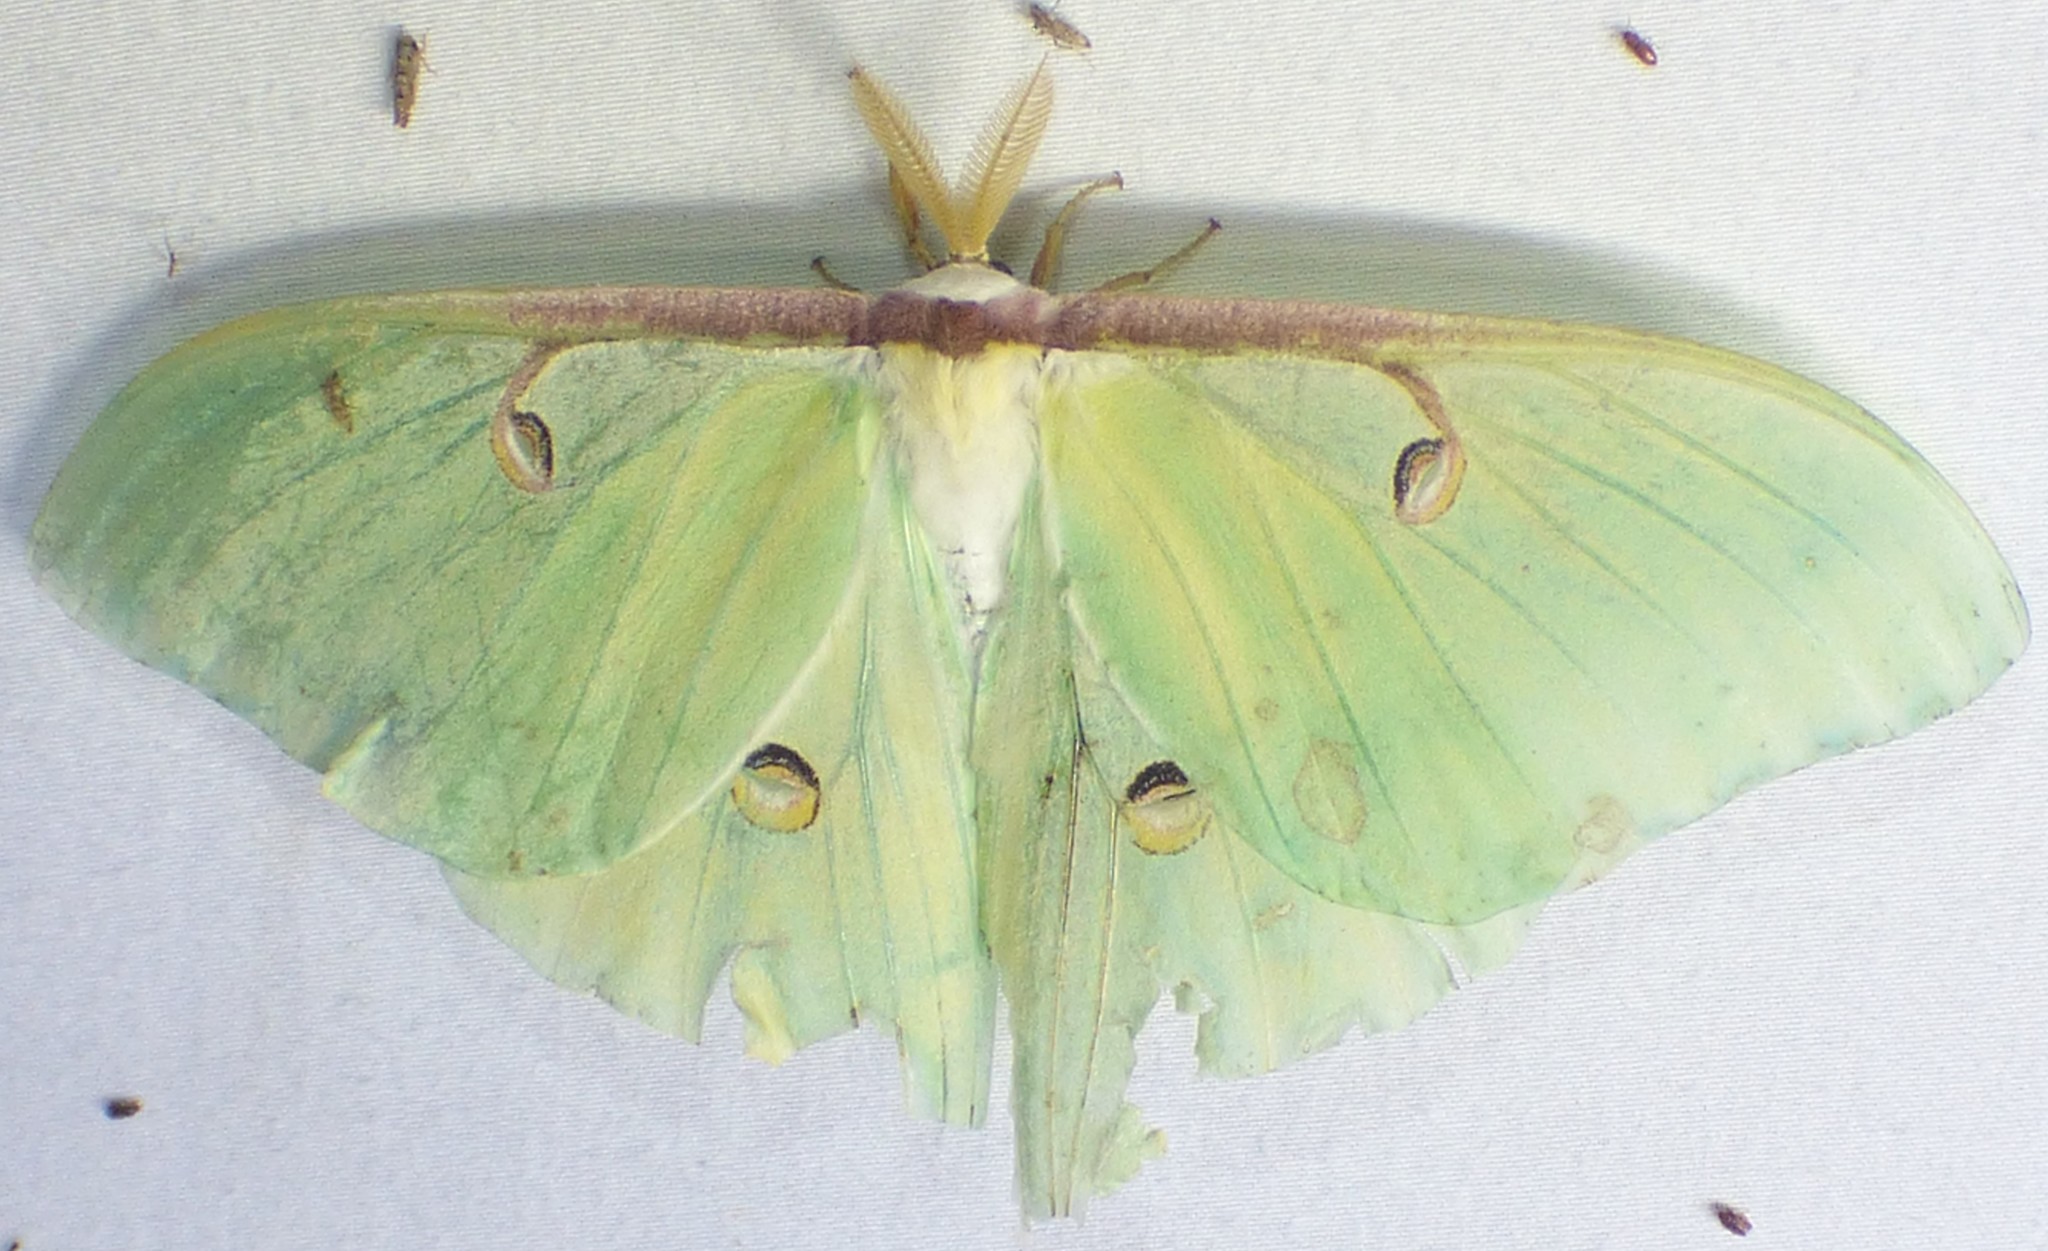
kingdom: Animalia
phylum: Arthropoda
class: Insecta
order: Lepidoptera
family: Saturniidae
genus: Actias
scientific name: Actias luna
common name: Luna moth
